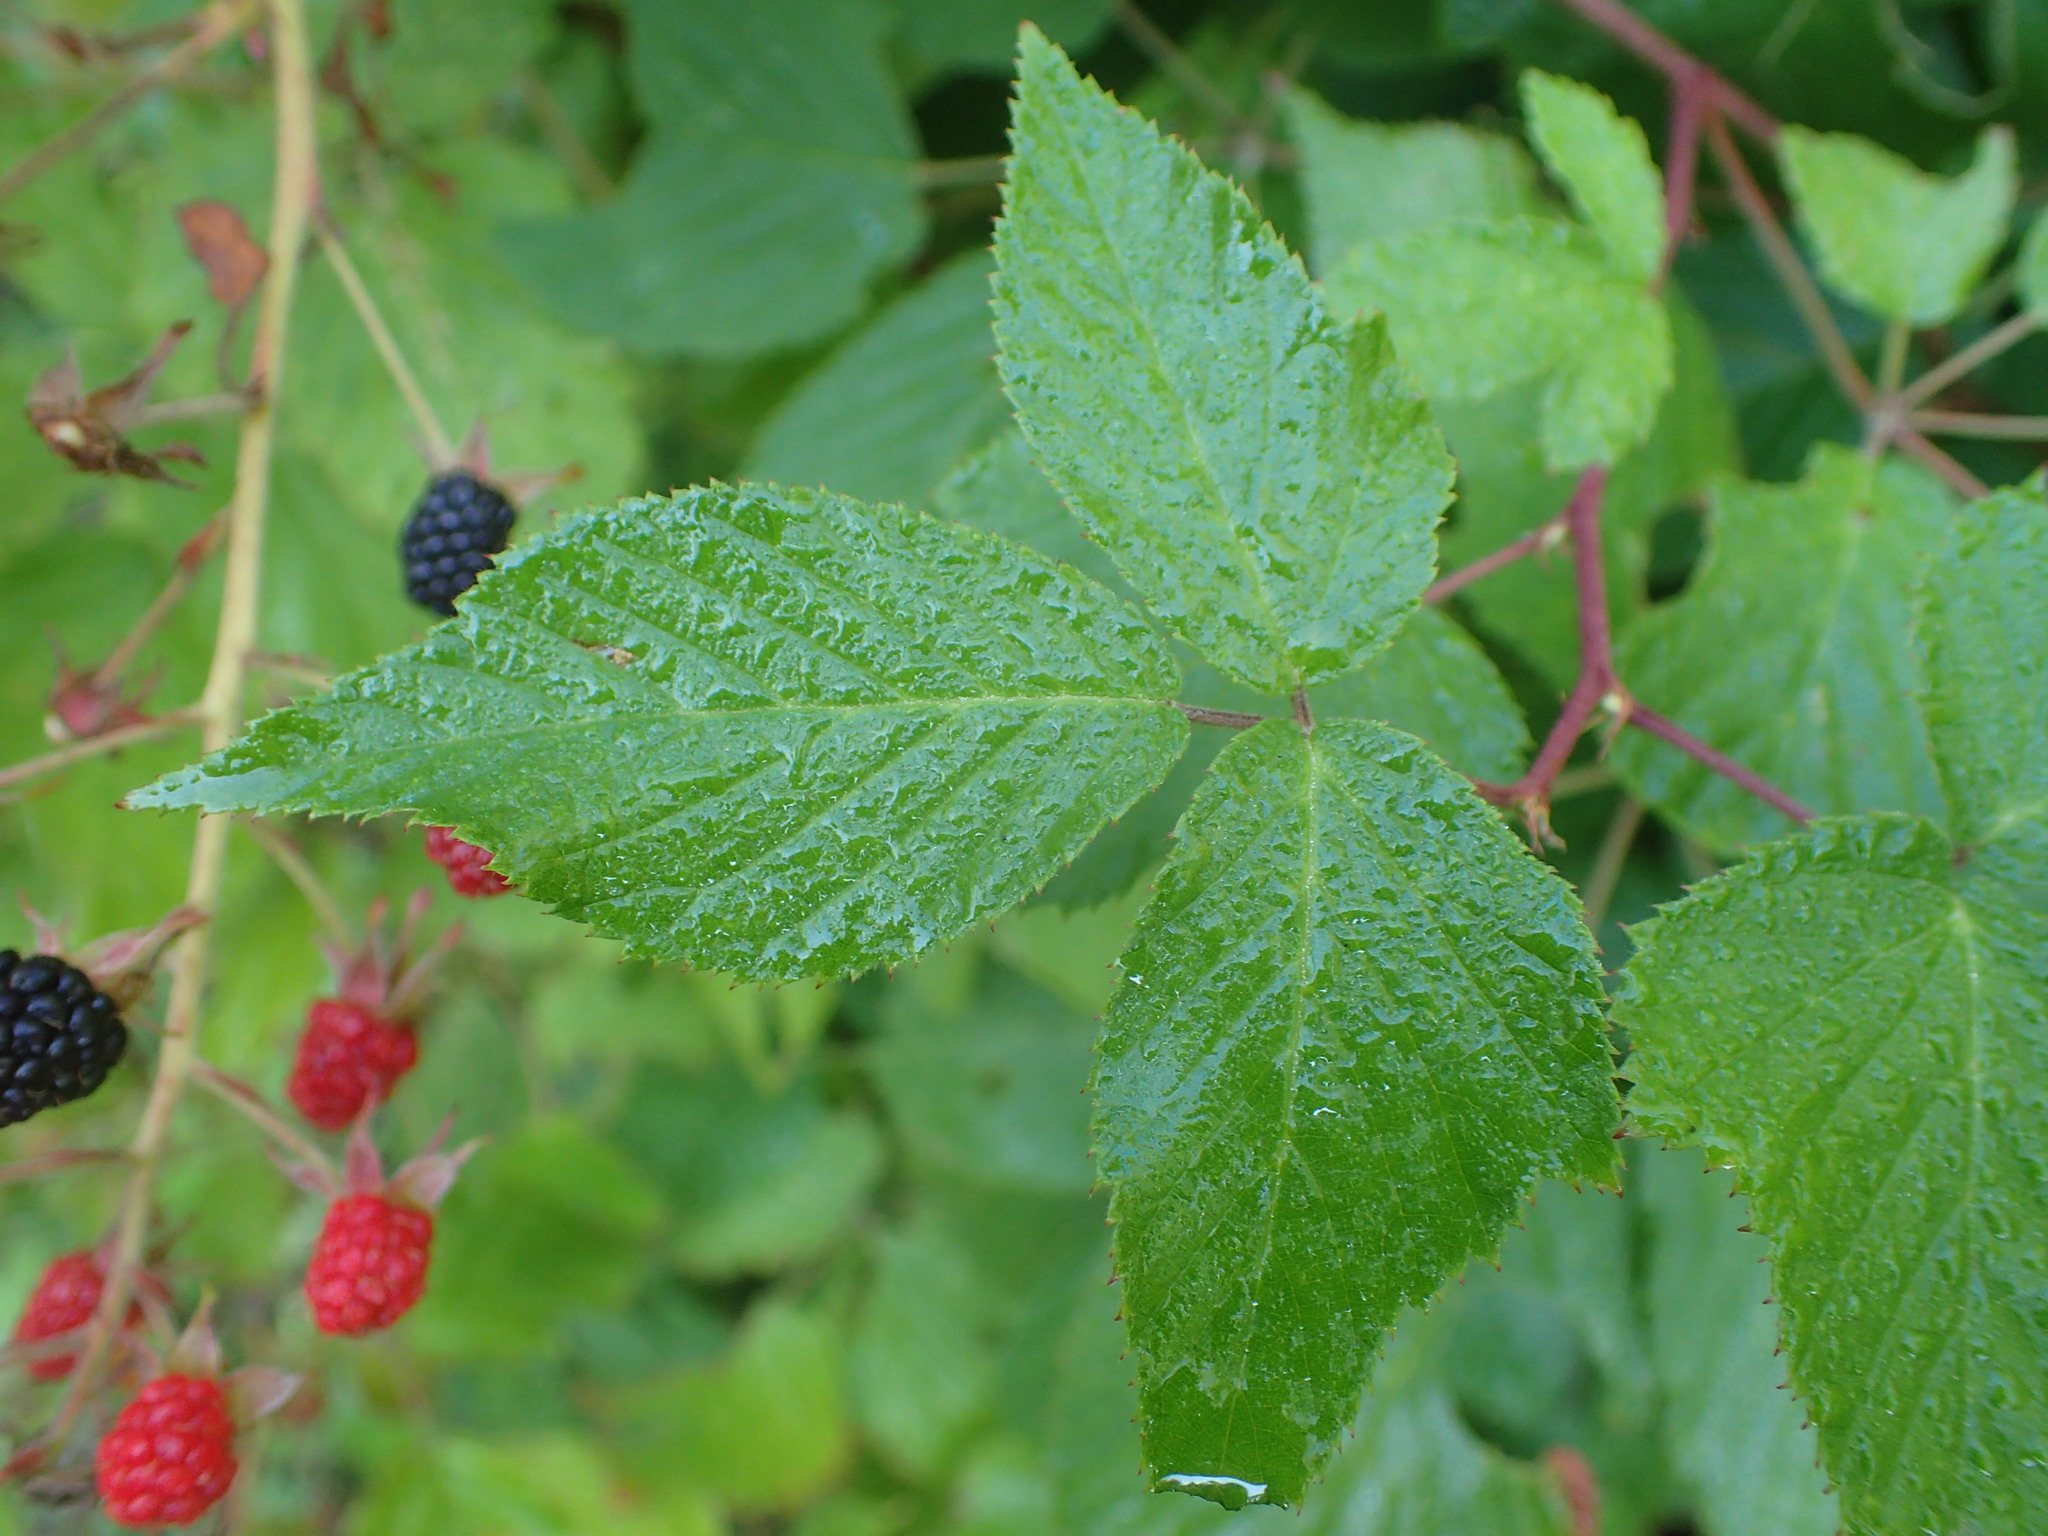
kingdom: Plantae
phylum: Tracheophyta
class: Magnoliopsida
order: Rosales
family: Rosaceae
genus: Rubus
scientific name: Rubus allegheniensis
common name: Allegheny blackberry
